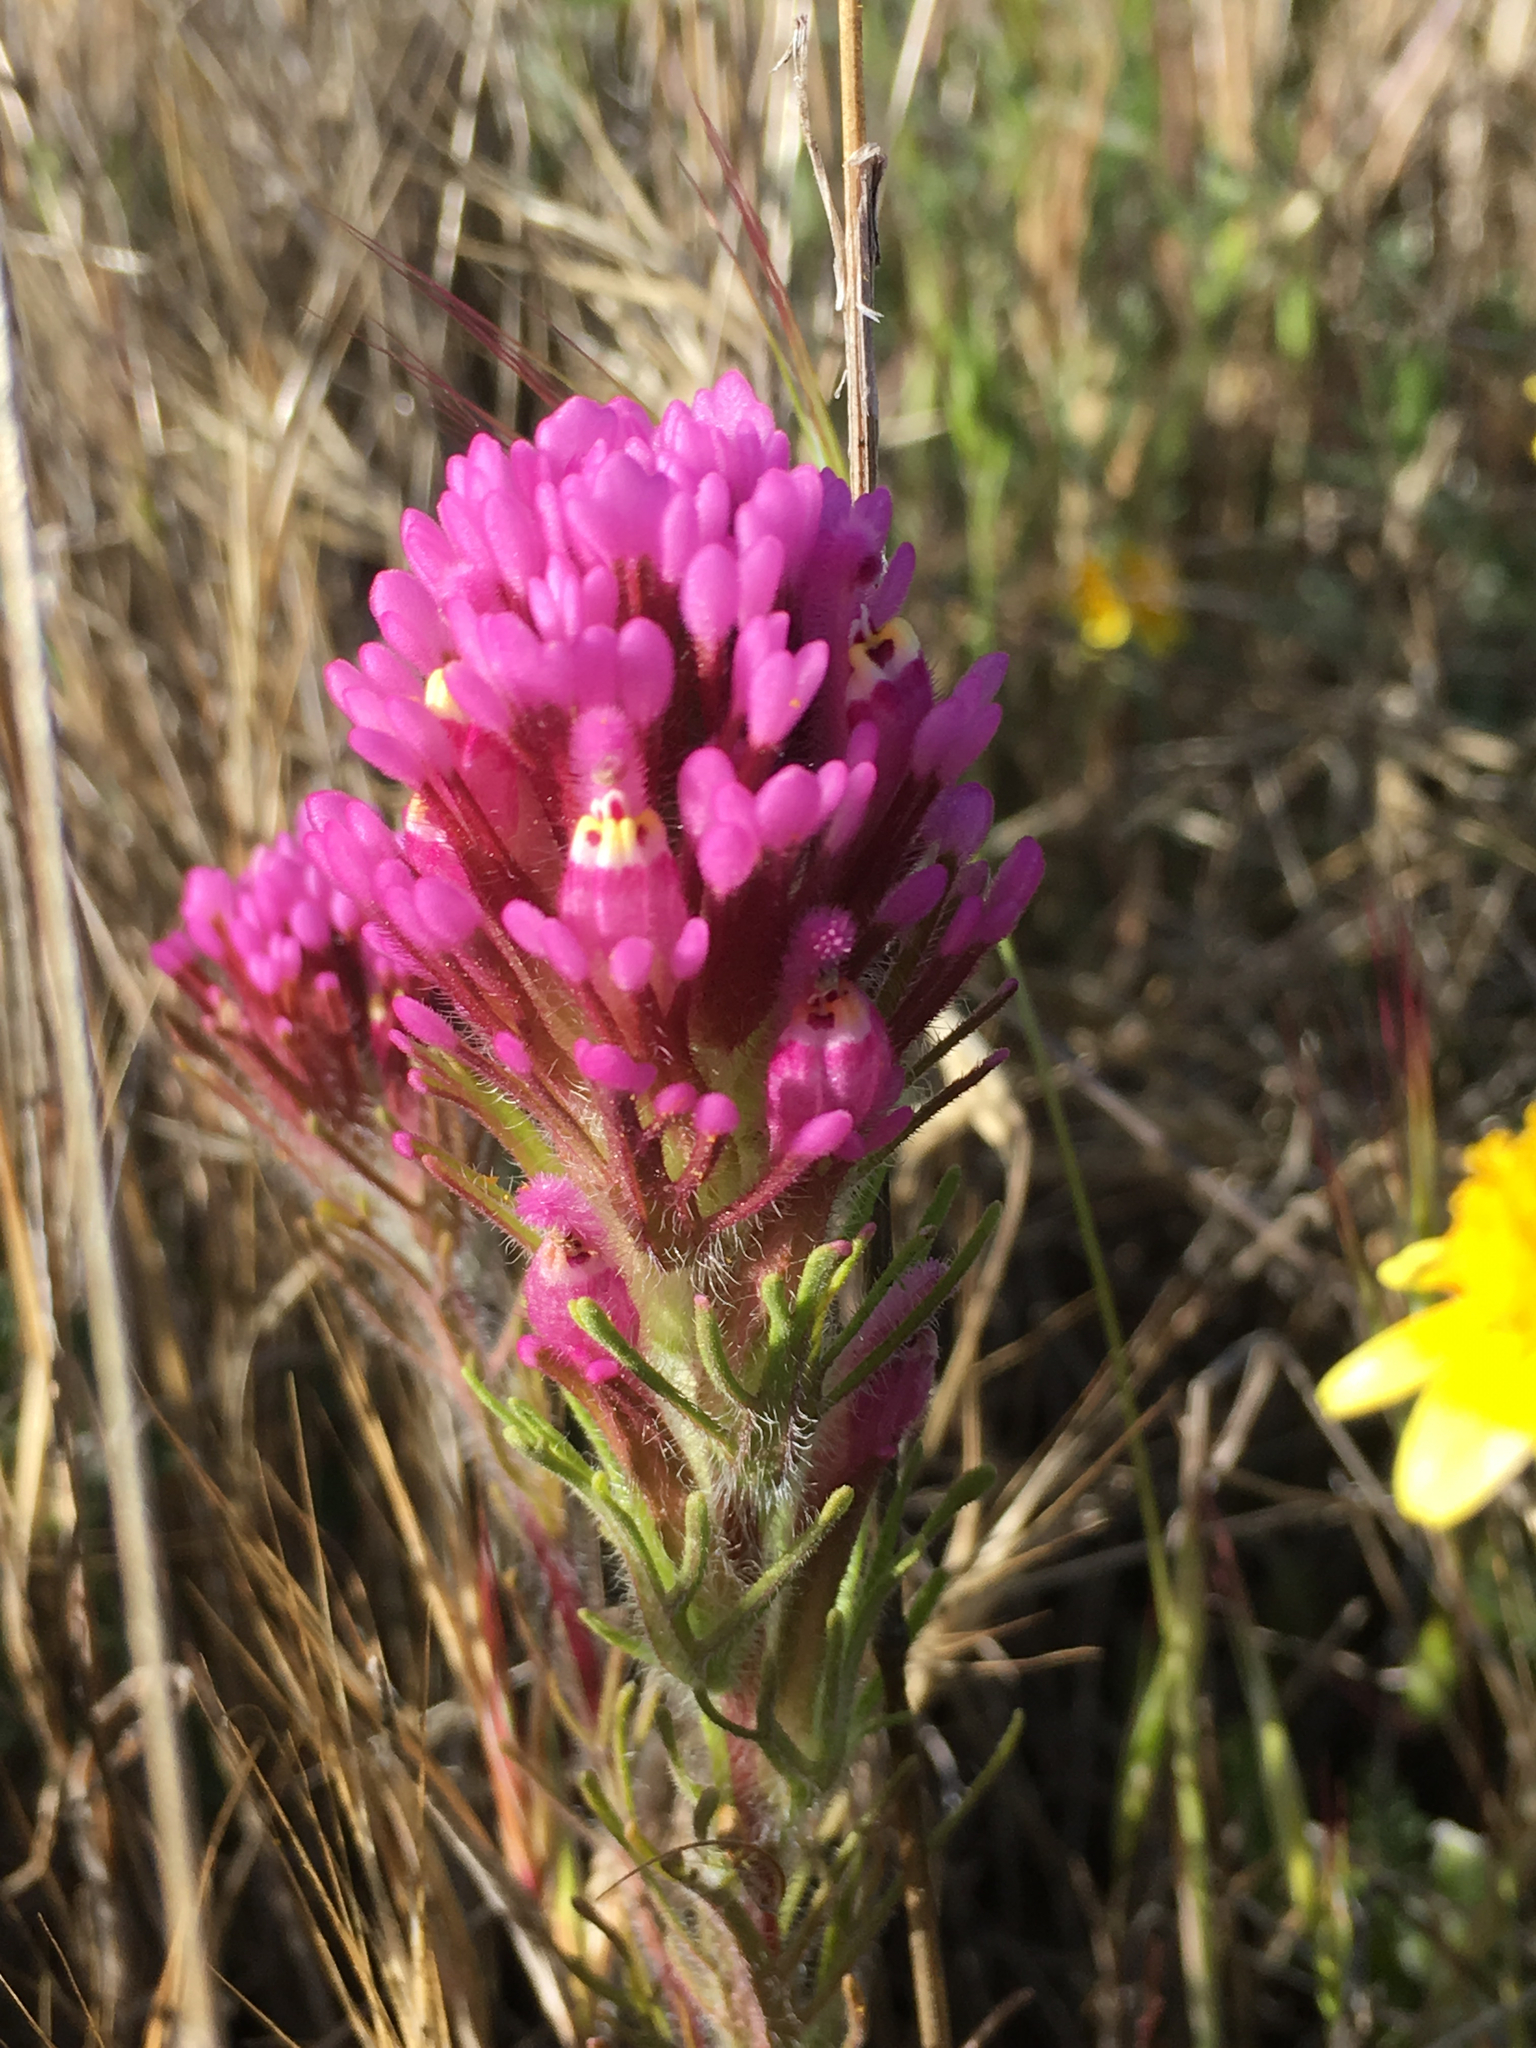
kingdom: Plantae
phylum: Tracheophyta
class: Magnoliopsida
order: Lamiales
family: Orobanchaceae
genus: Castilleja
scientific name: Castilleja exserta
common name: Purple owl-clover
